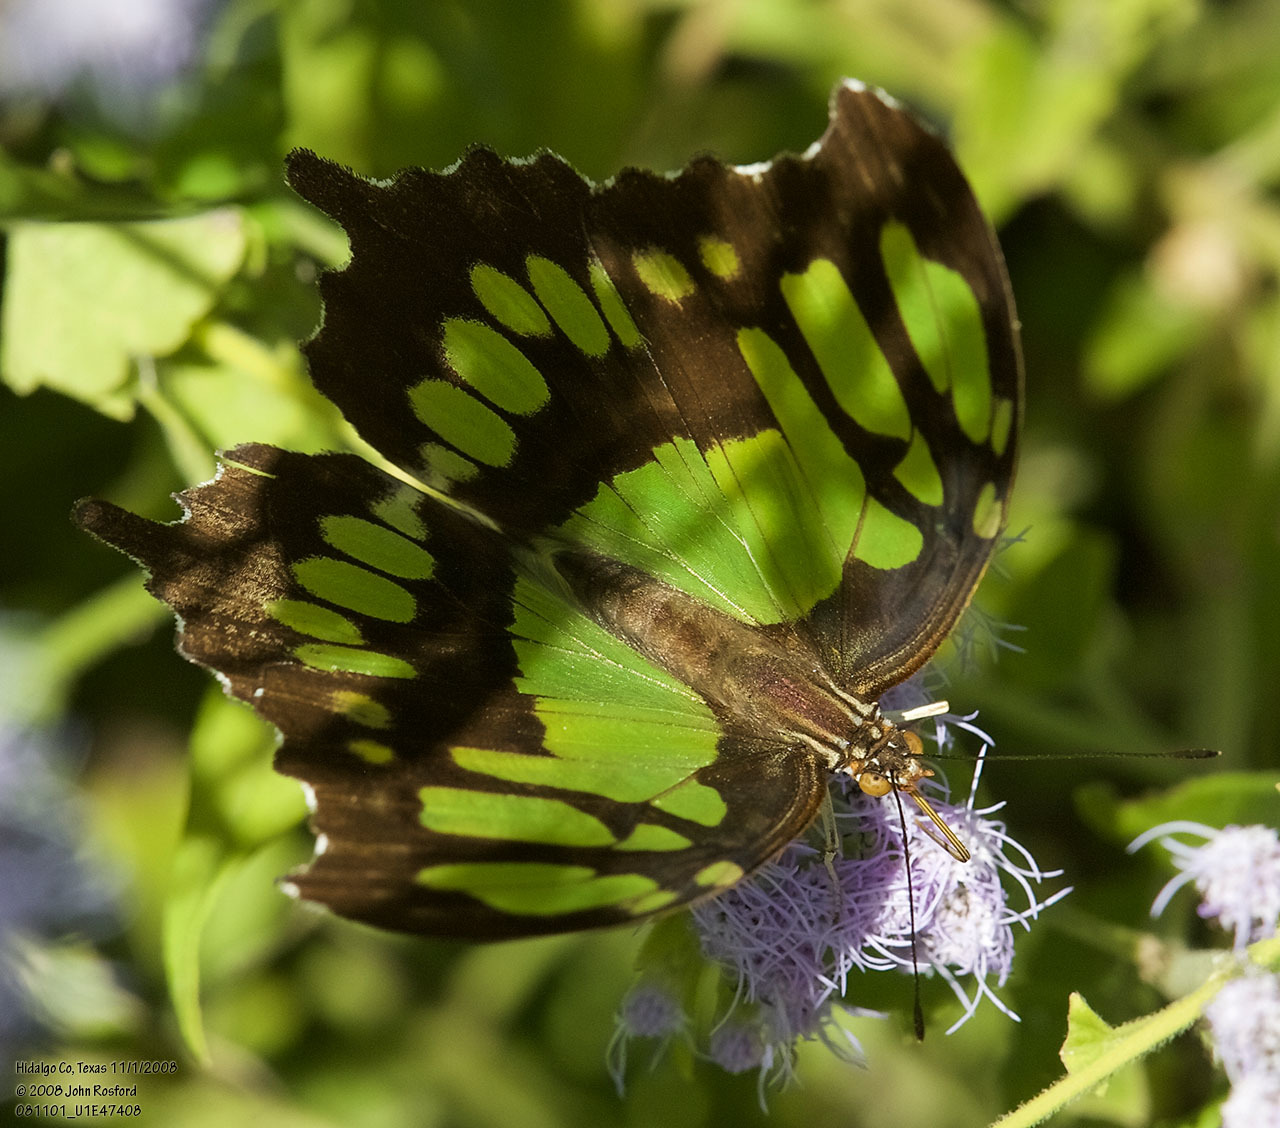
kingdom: Animalia
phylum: Arthropoda
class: Insecta
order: Lepidoptera
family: Nymphalidae
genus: Siproeta
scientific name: Siproeta stelenes
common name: Malachite
